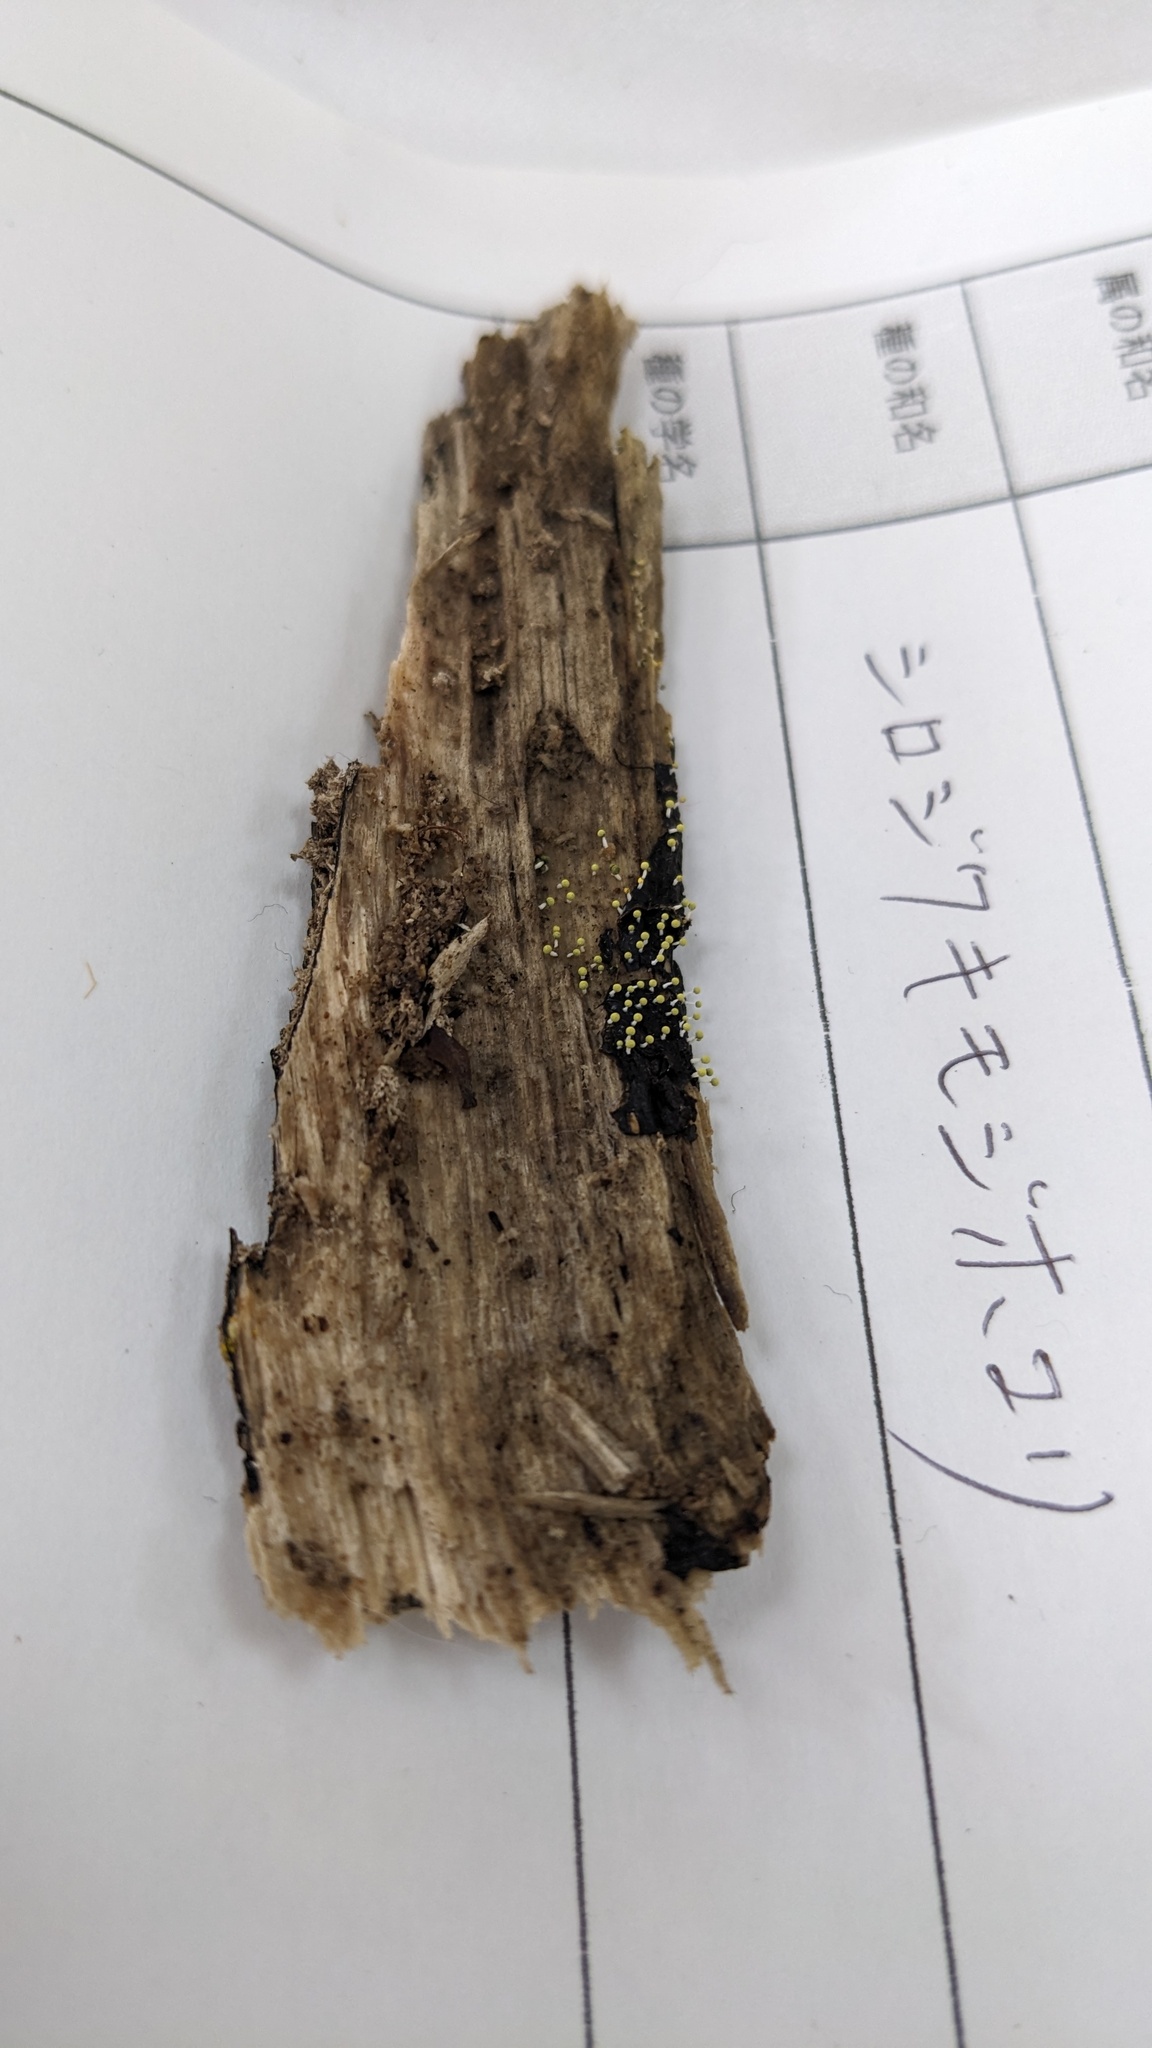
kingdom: Protozoa
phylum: Mycetozoa
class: Myxomycetes
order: Physarales
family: Physaraceae
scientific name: Physaraceae
